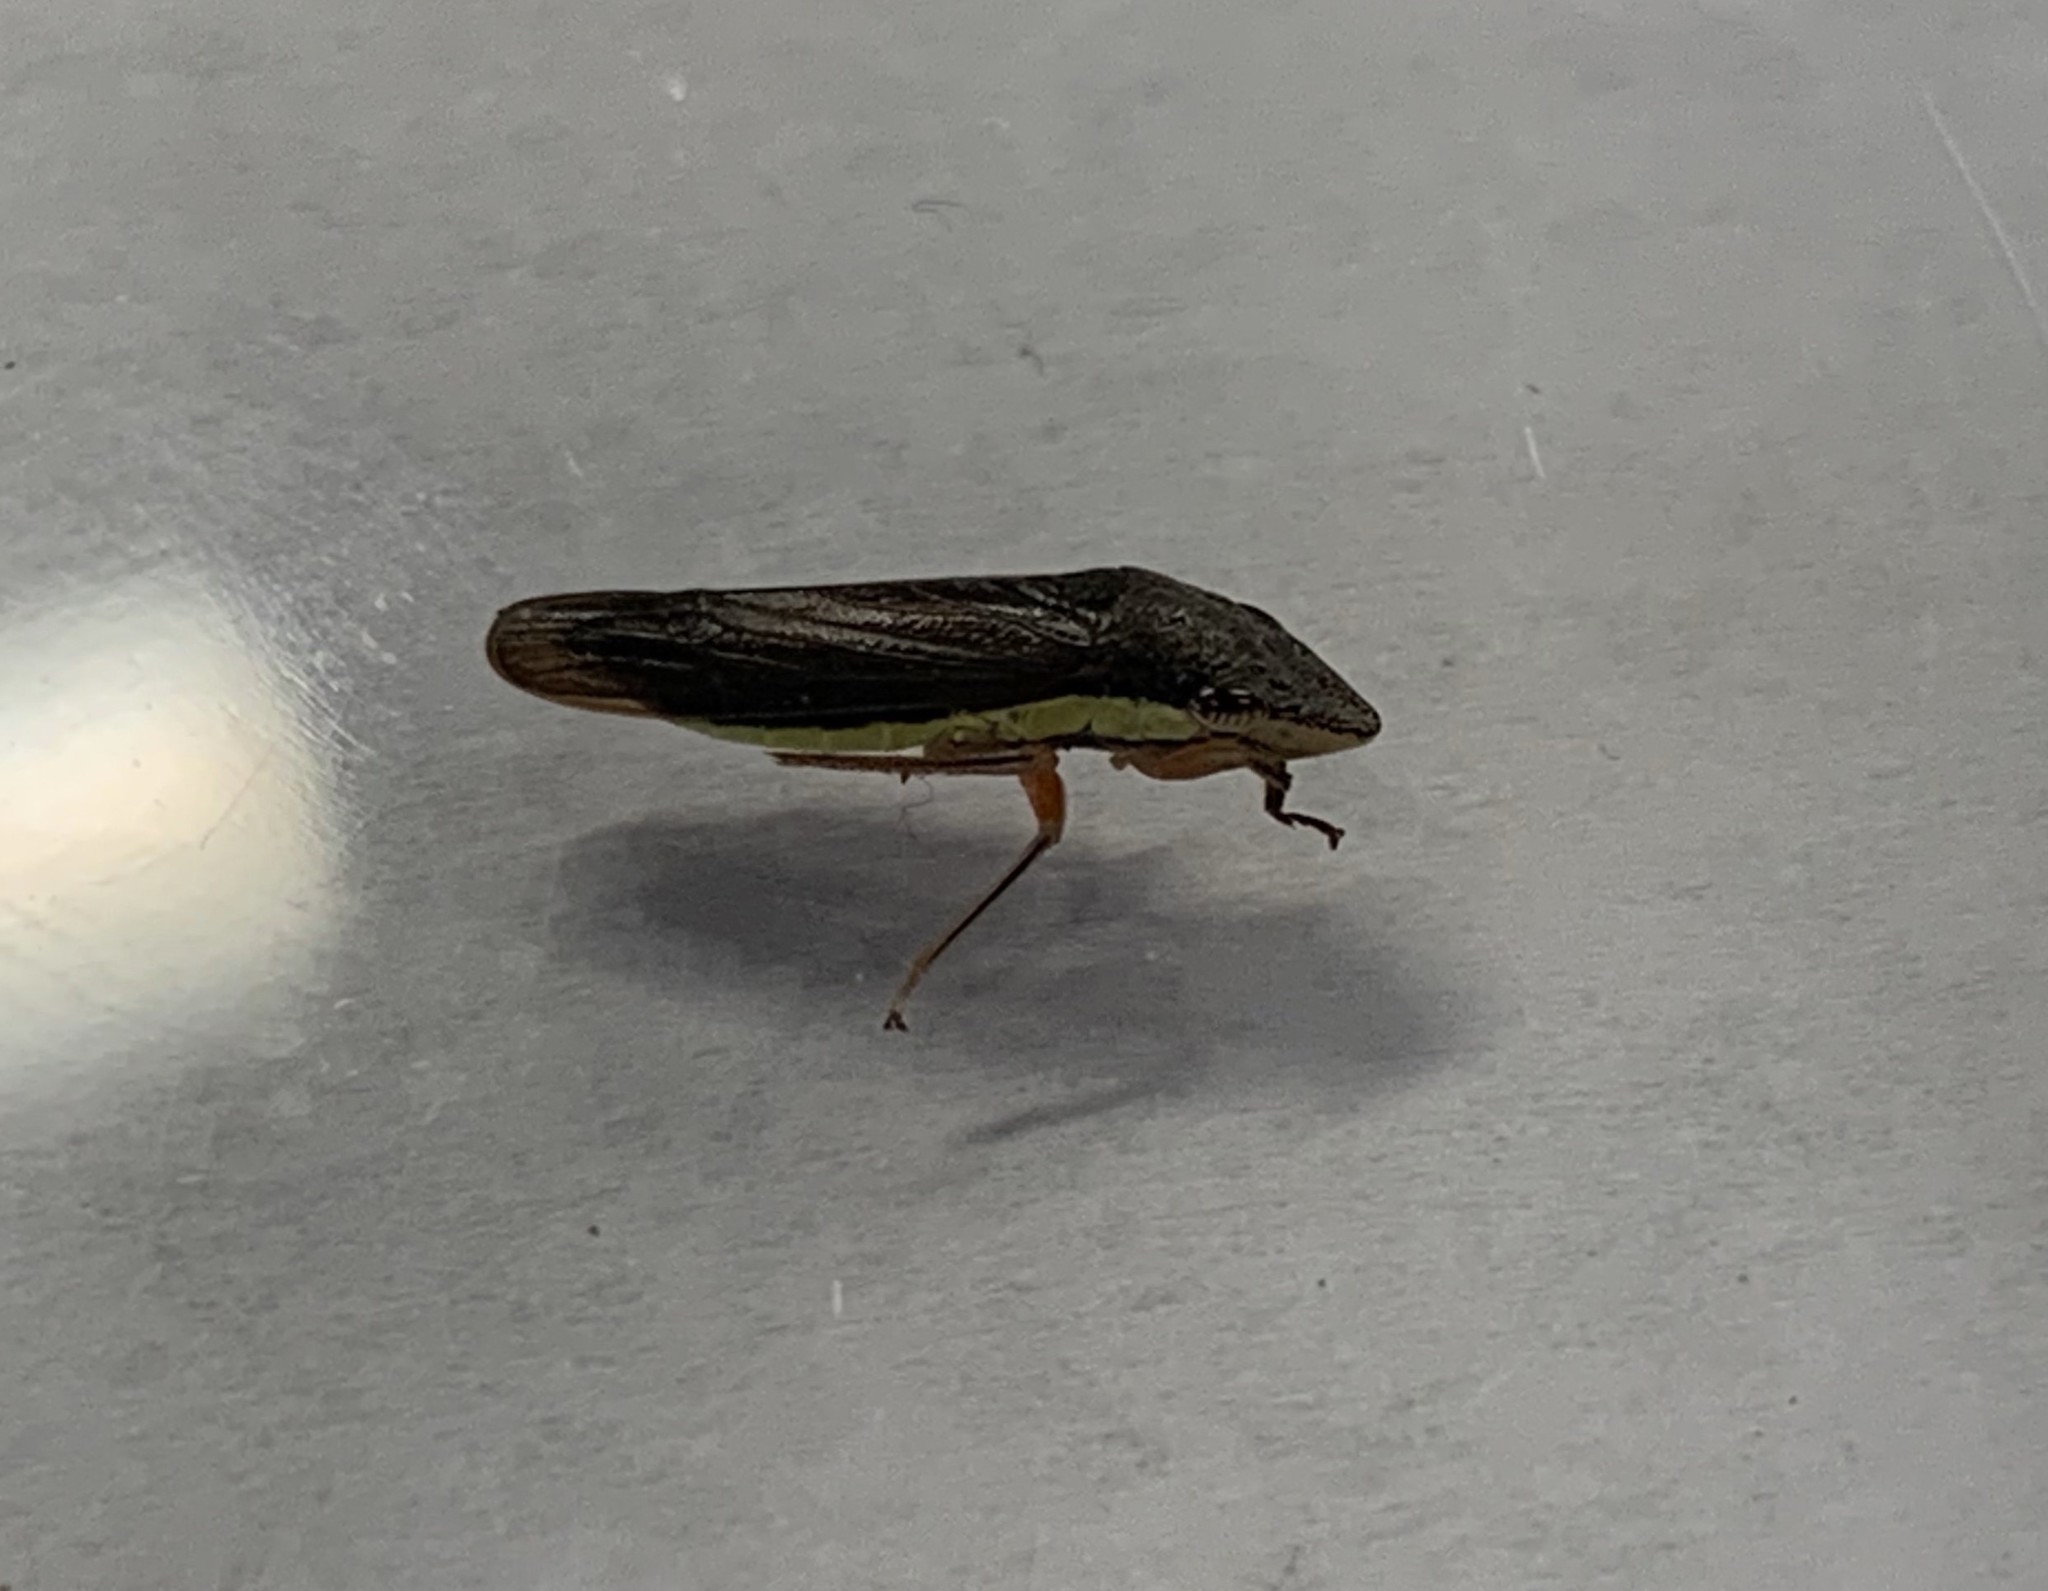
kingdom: Animalia
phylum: Arthropoda
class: Insecta
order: Hemiptera
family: Cicadellidae
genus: Homalodisca
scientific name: Homalodisca insolita
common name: Johnson grass sharpshooter
